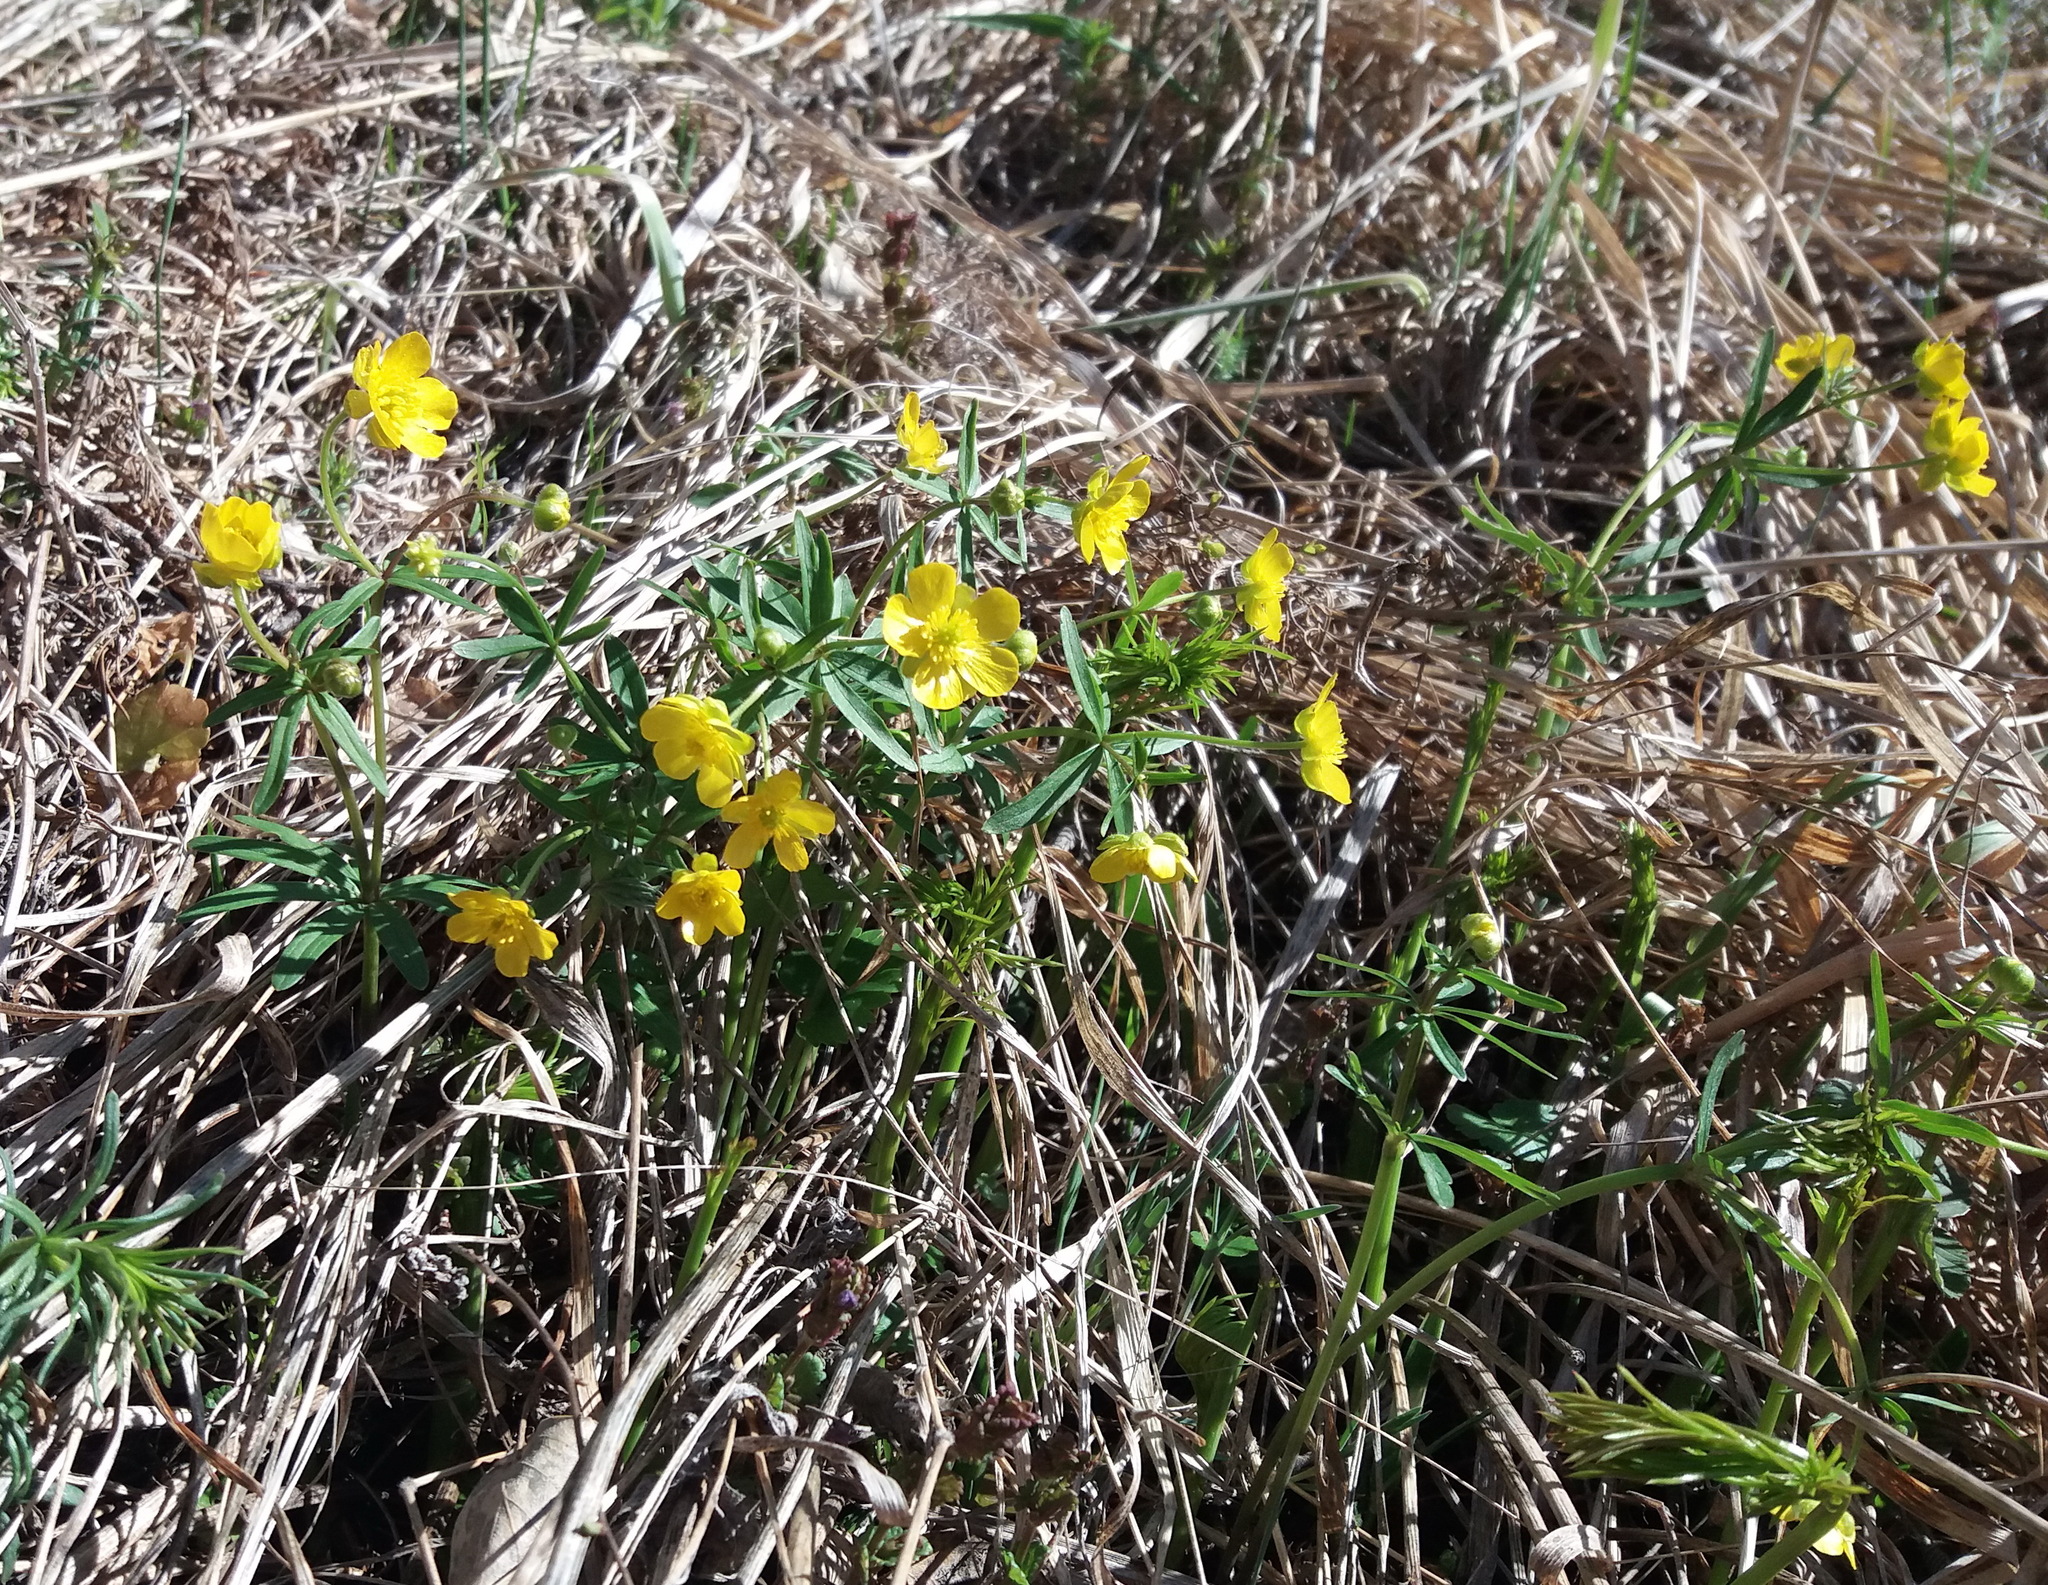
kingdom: Plantae
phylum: Tracheophyta
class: Magnoliopsida
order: Ranunculales
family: Ranunculaceae
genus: Ranunculus
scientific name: Ranunculus monophyllus
